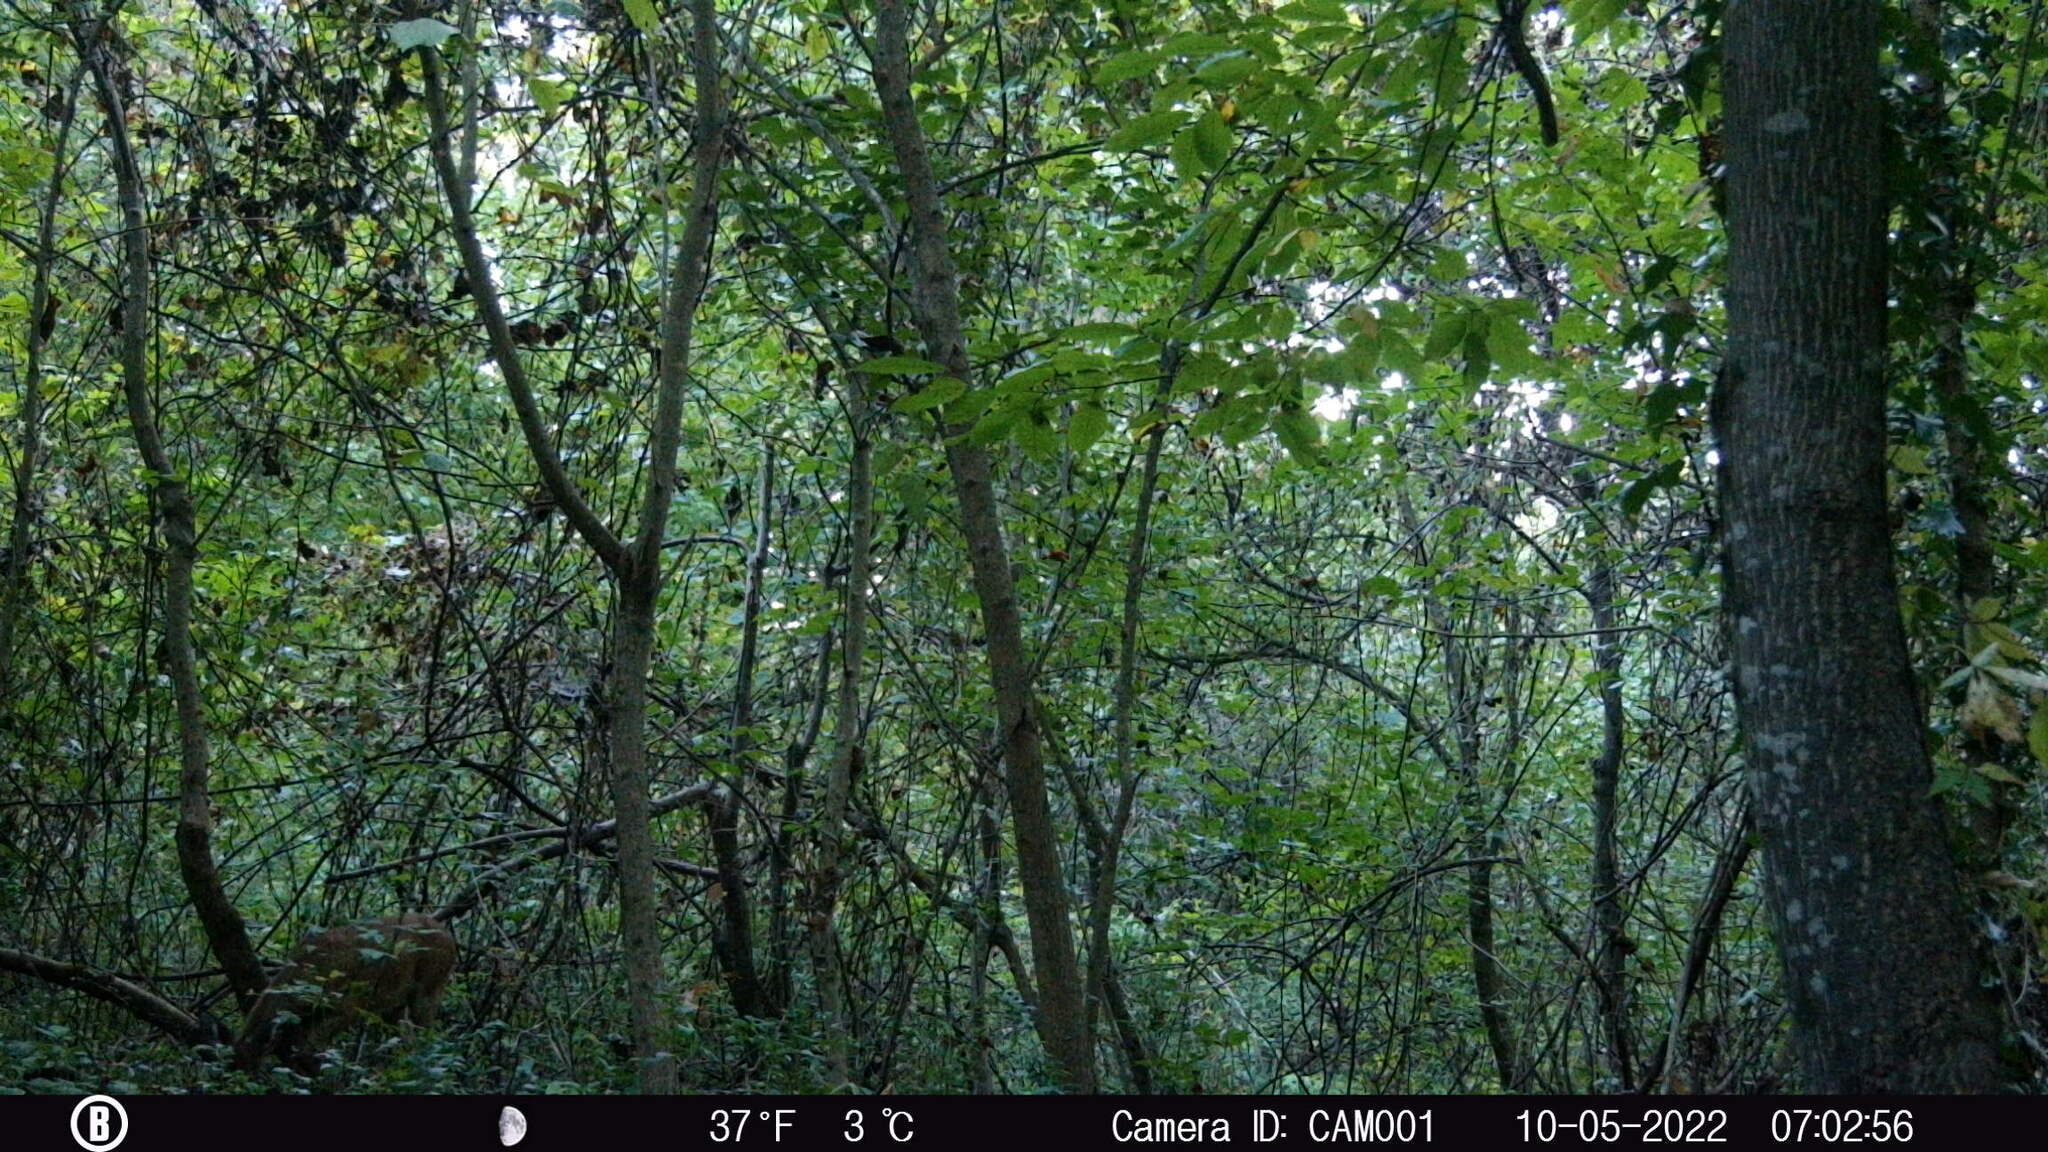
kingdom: Animalia
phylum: Chordata
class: Mammalia
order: Artiodactyla
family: Cervidae
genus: Odocoileus
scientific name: Odocoileus virginianus
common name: White-tailed deer
